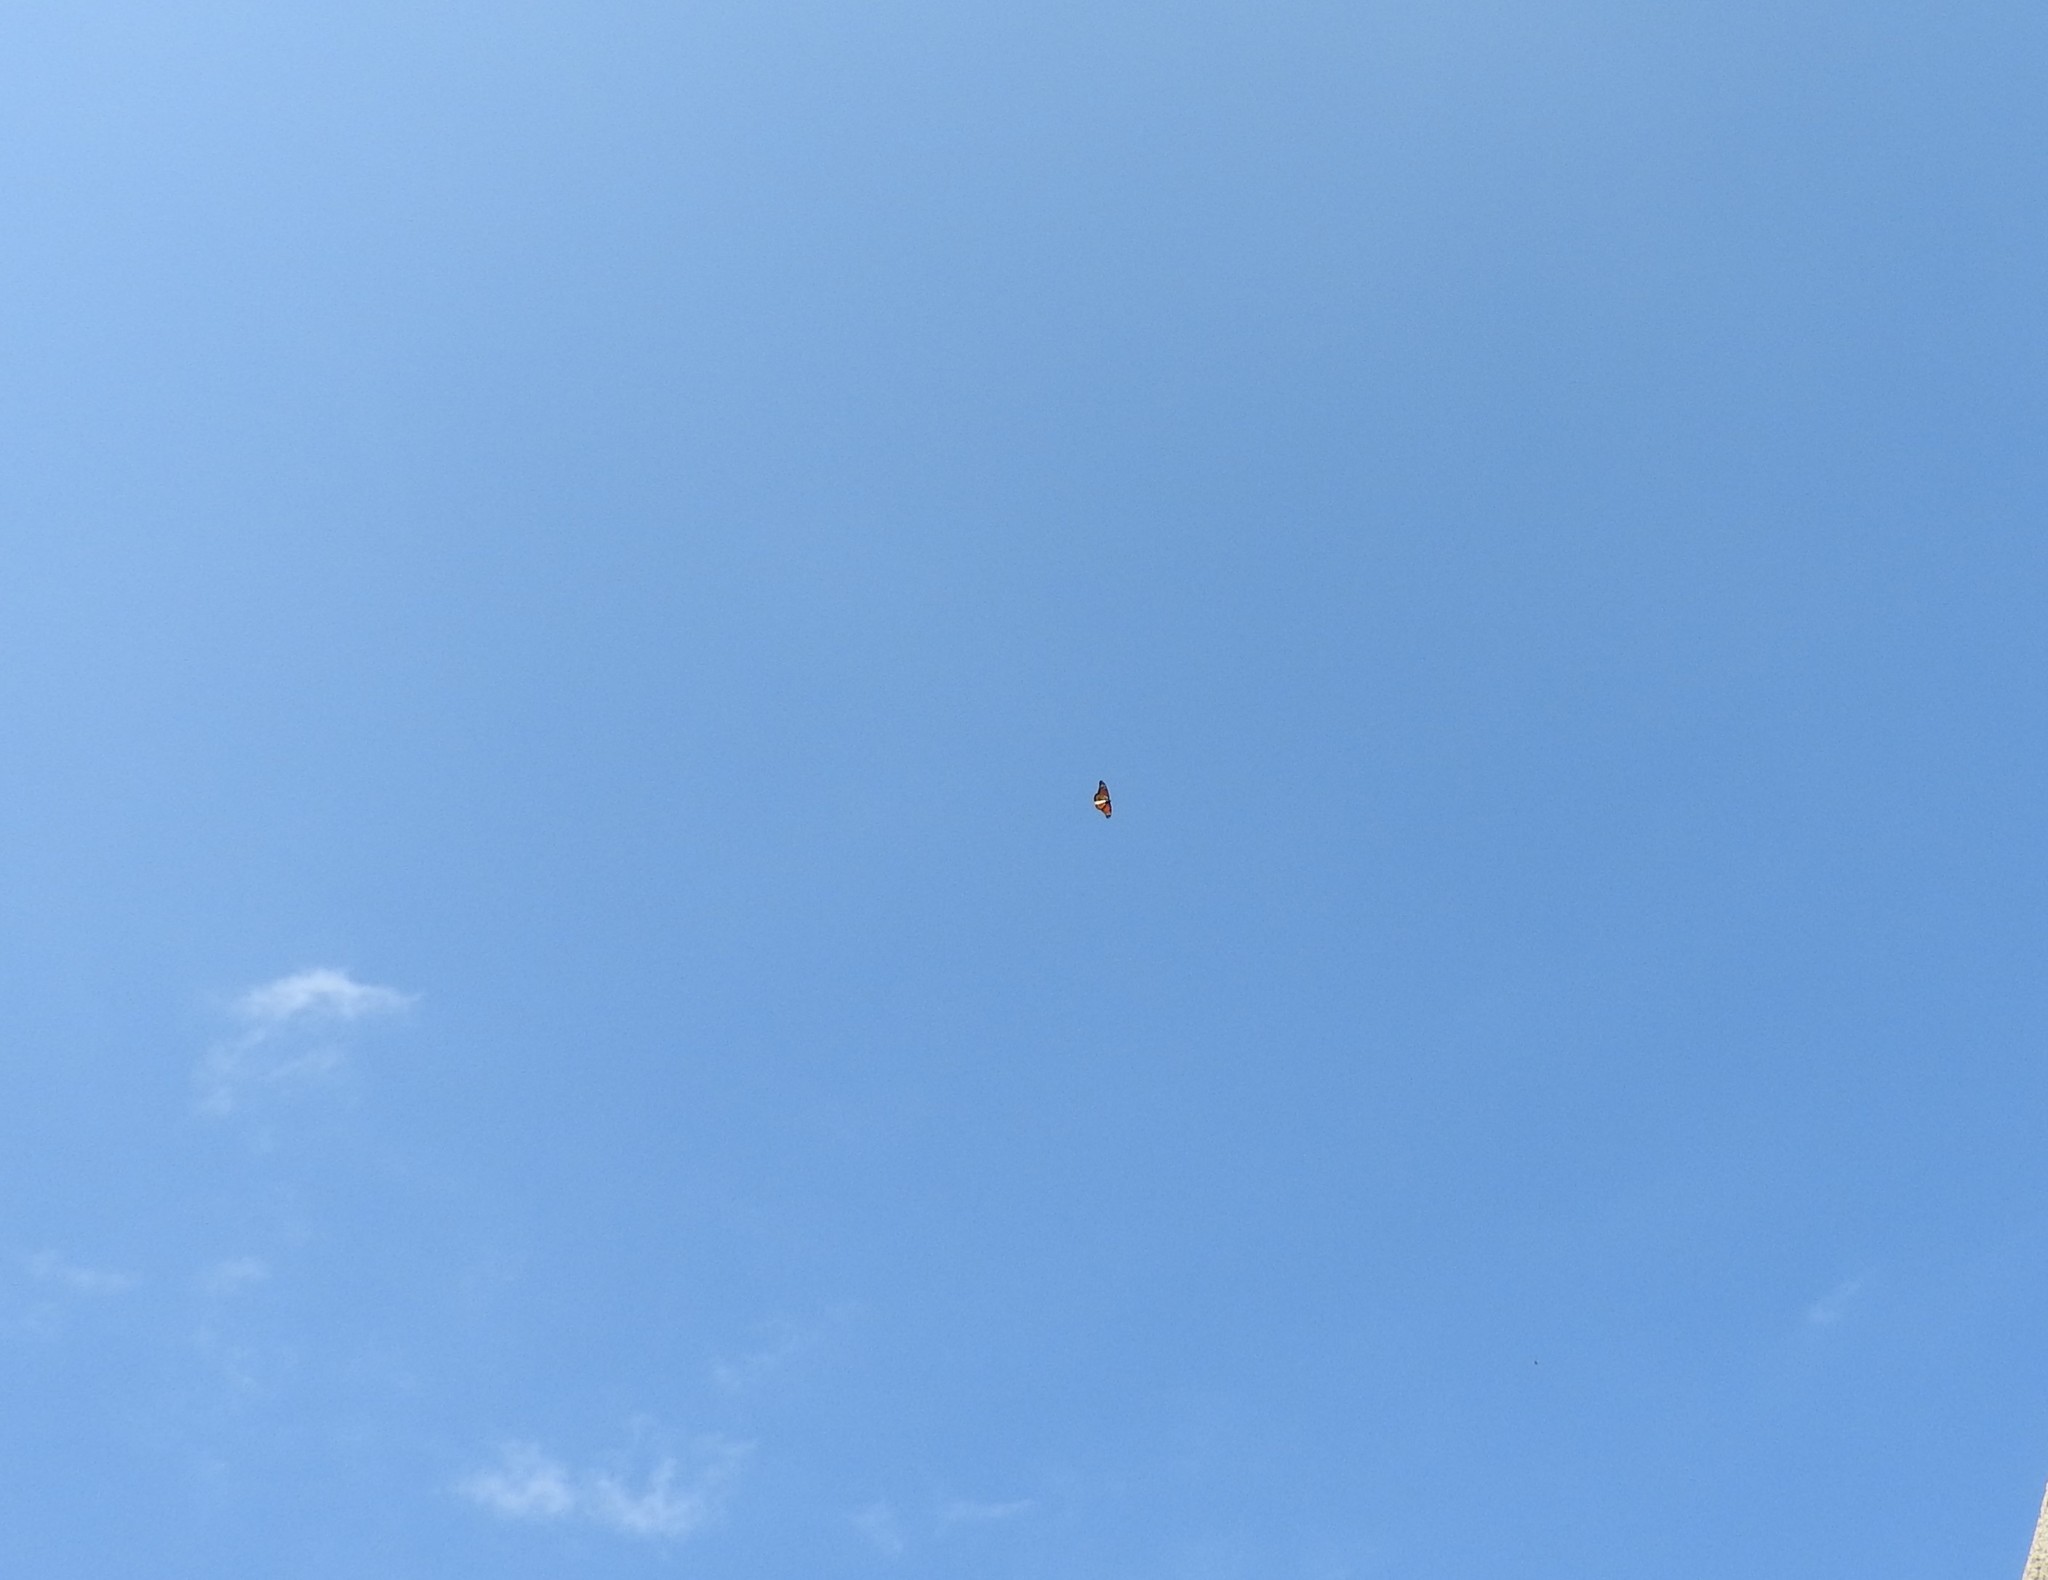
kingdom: Animalia
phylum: Arthropoda
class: Insecta
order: Lepidoptera
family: Nymphalidae
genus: Danaus
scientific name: Danaus plexippus
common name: Monarch
